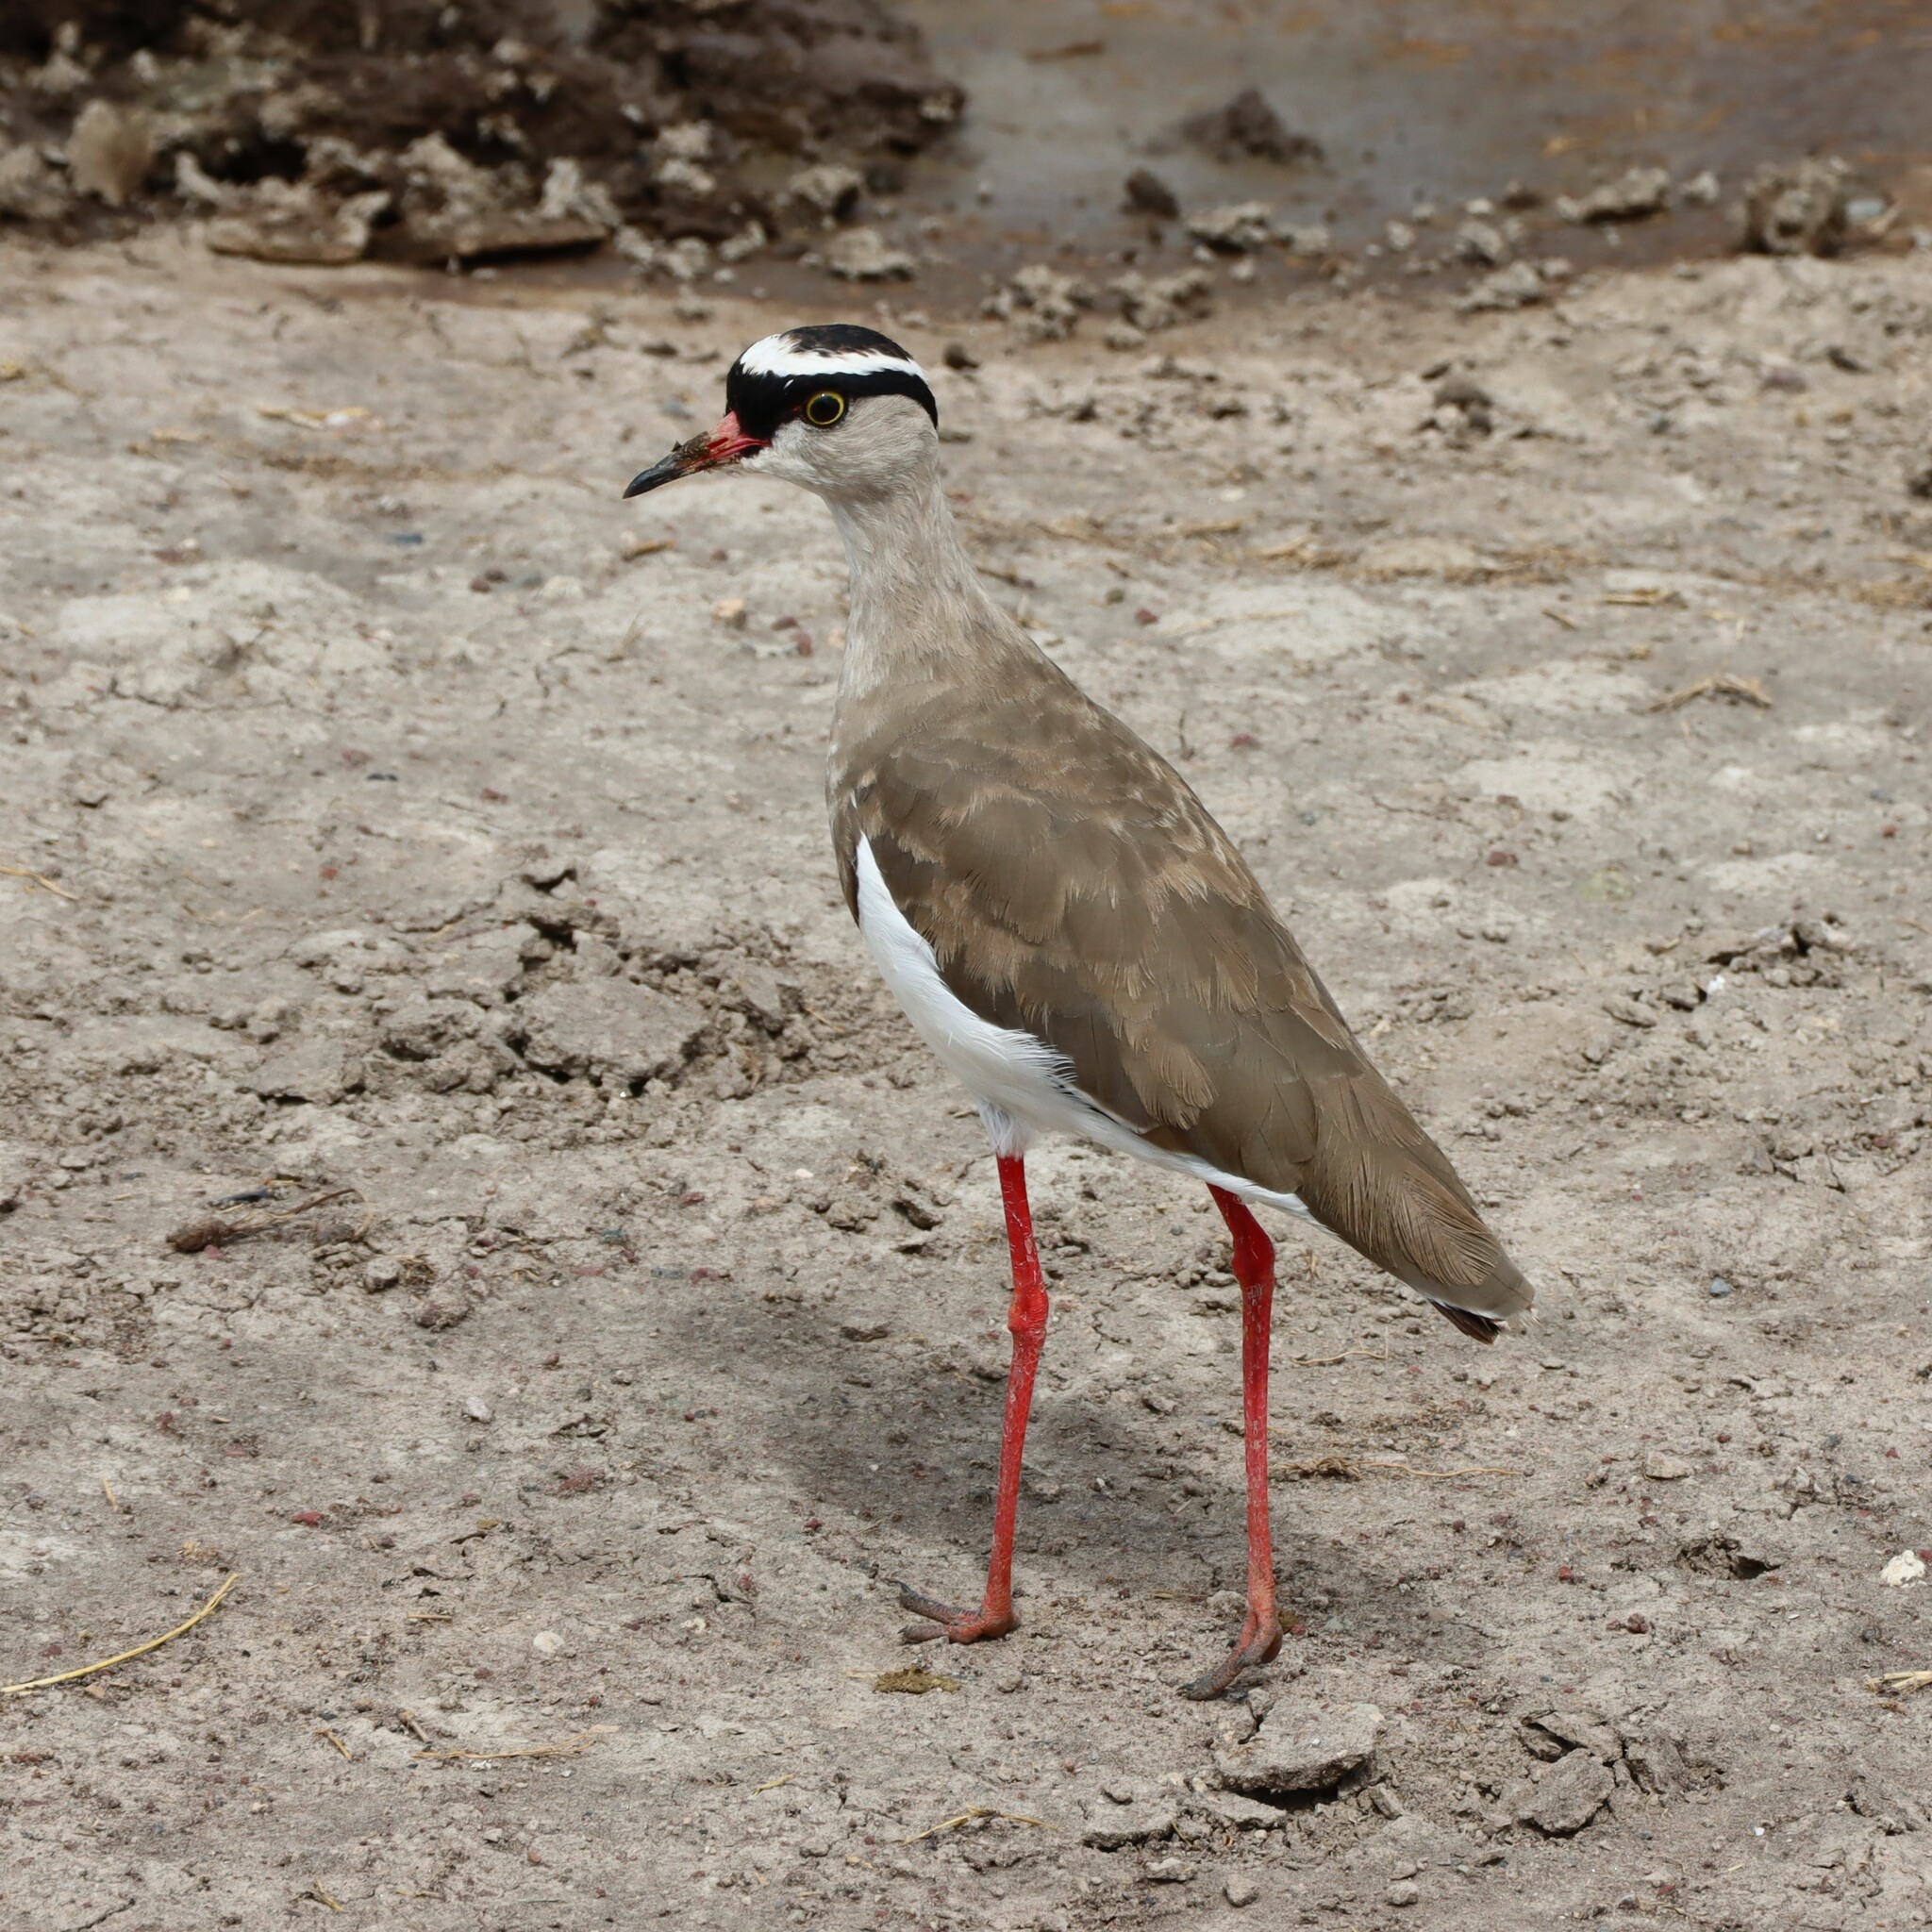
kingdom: Animalia
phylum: Chordata
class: Aves
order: Charadriiformes
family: Charadriidae
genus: Vanellus
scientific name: Vanellus coronatus
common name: Crowned lapwing
